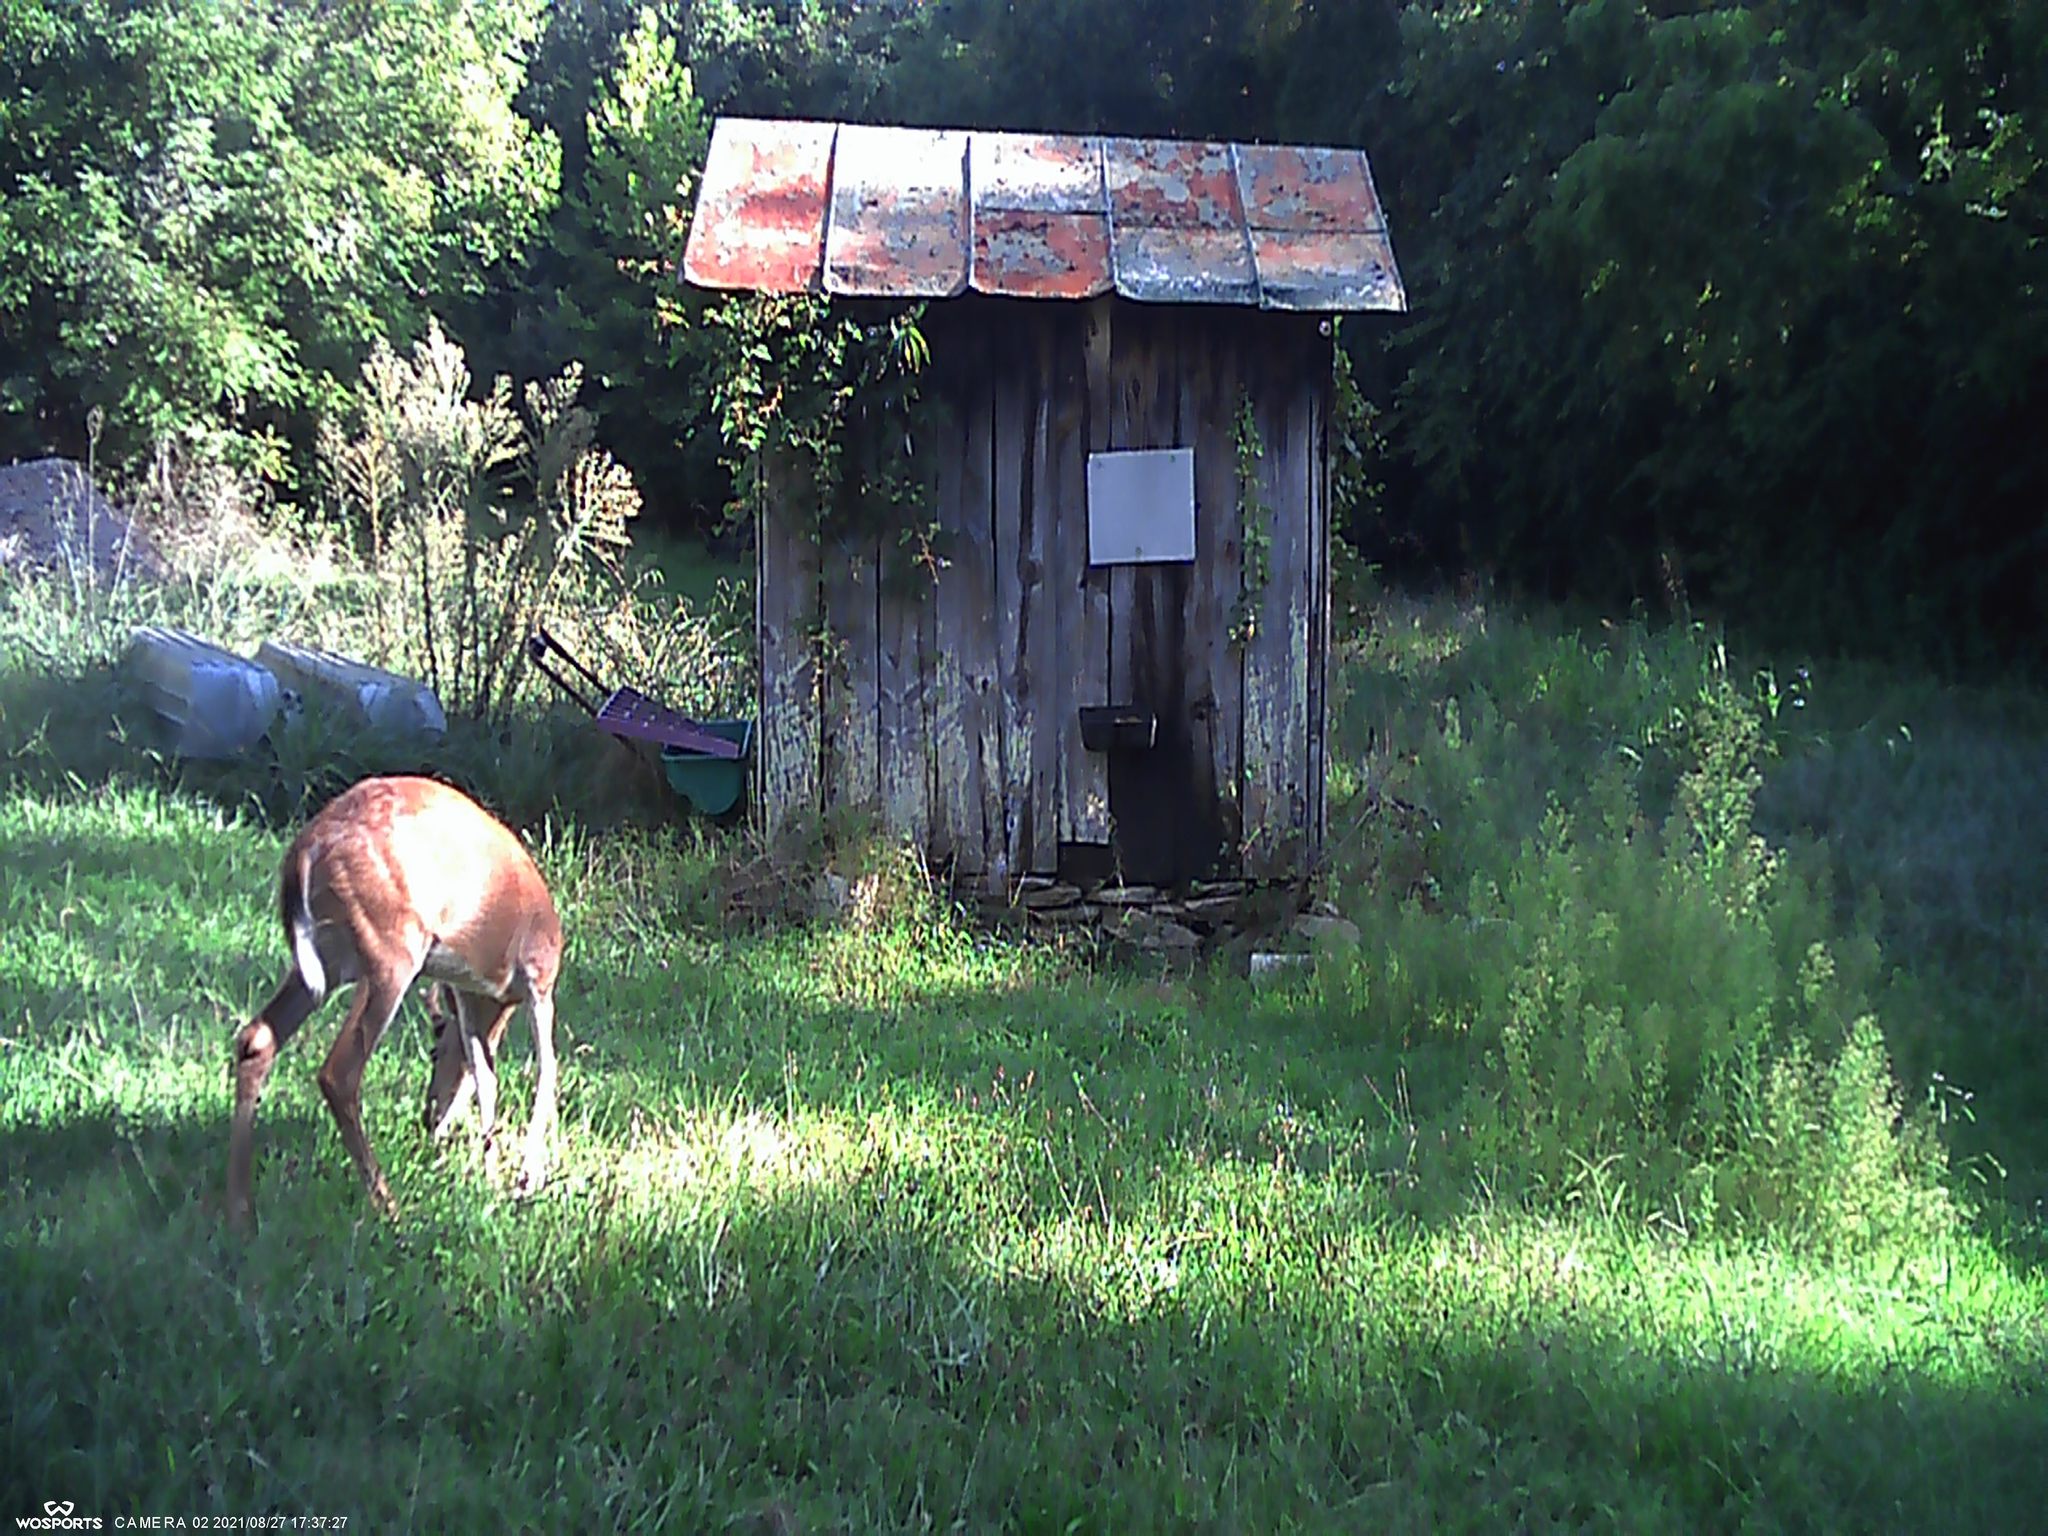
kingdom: Animalia
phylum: Chordata
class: Mammalia
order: Artiodactyla
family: Cervidae
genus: Odocoileus
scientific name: Odocoileus virginianus
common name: White-tailed deer
